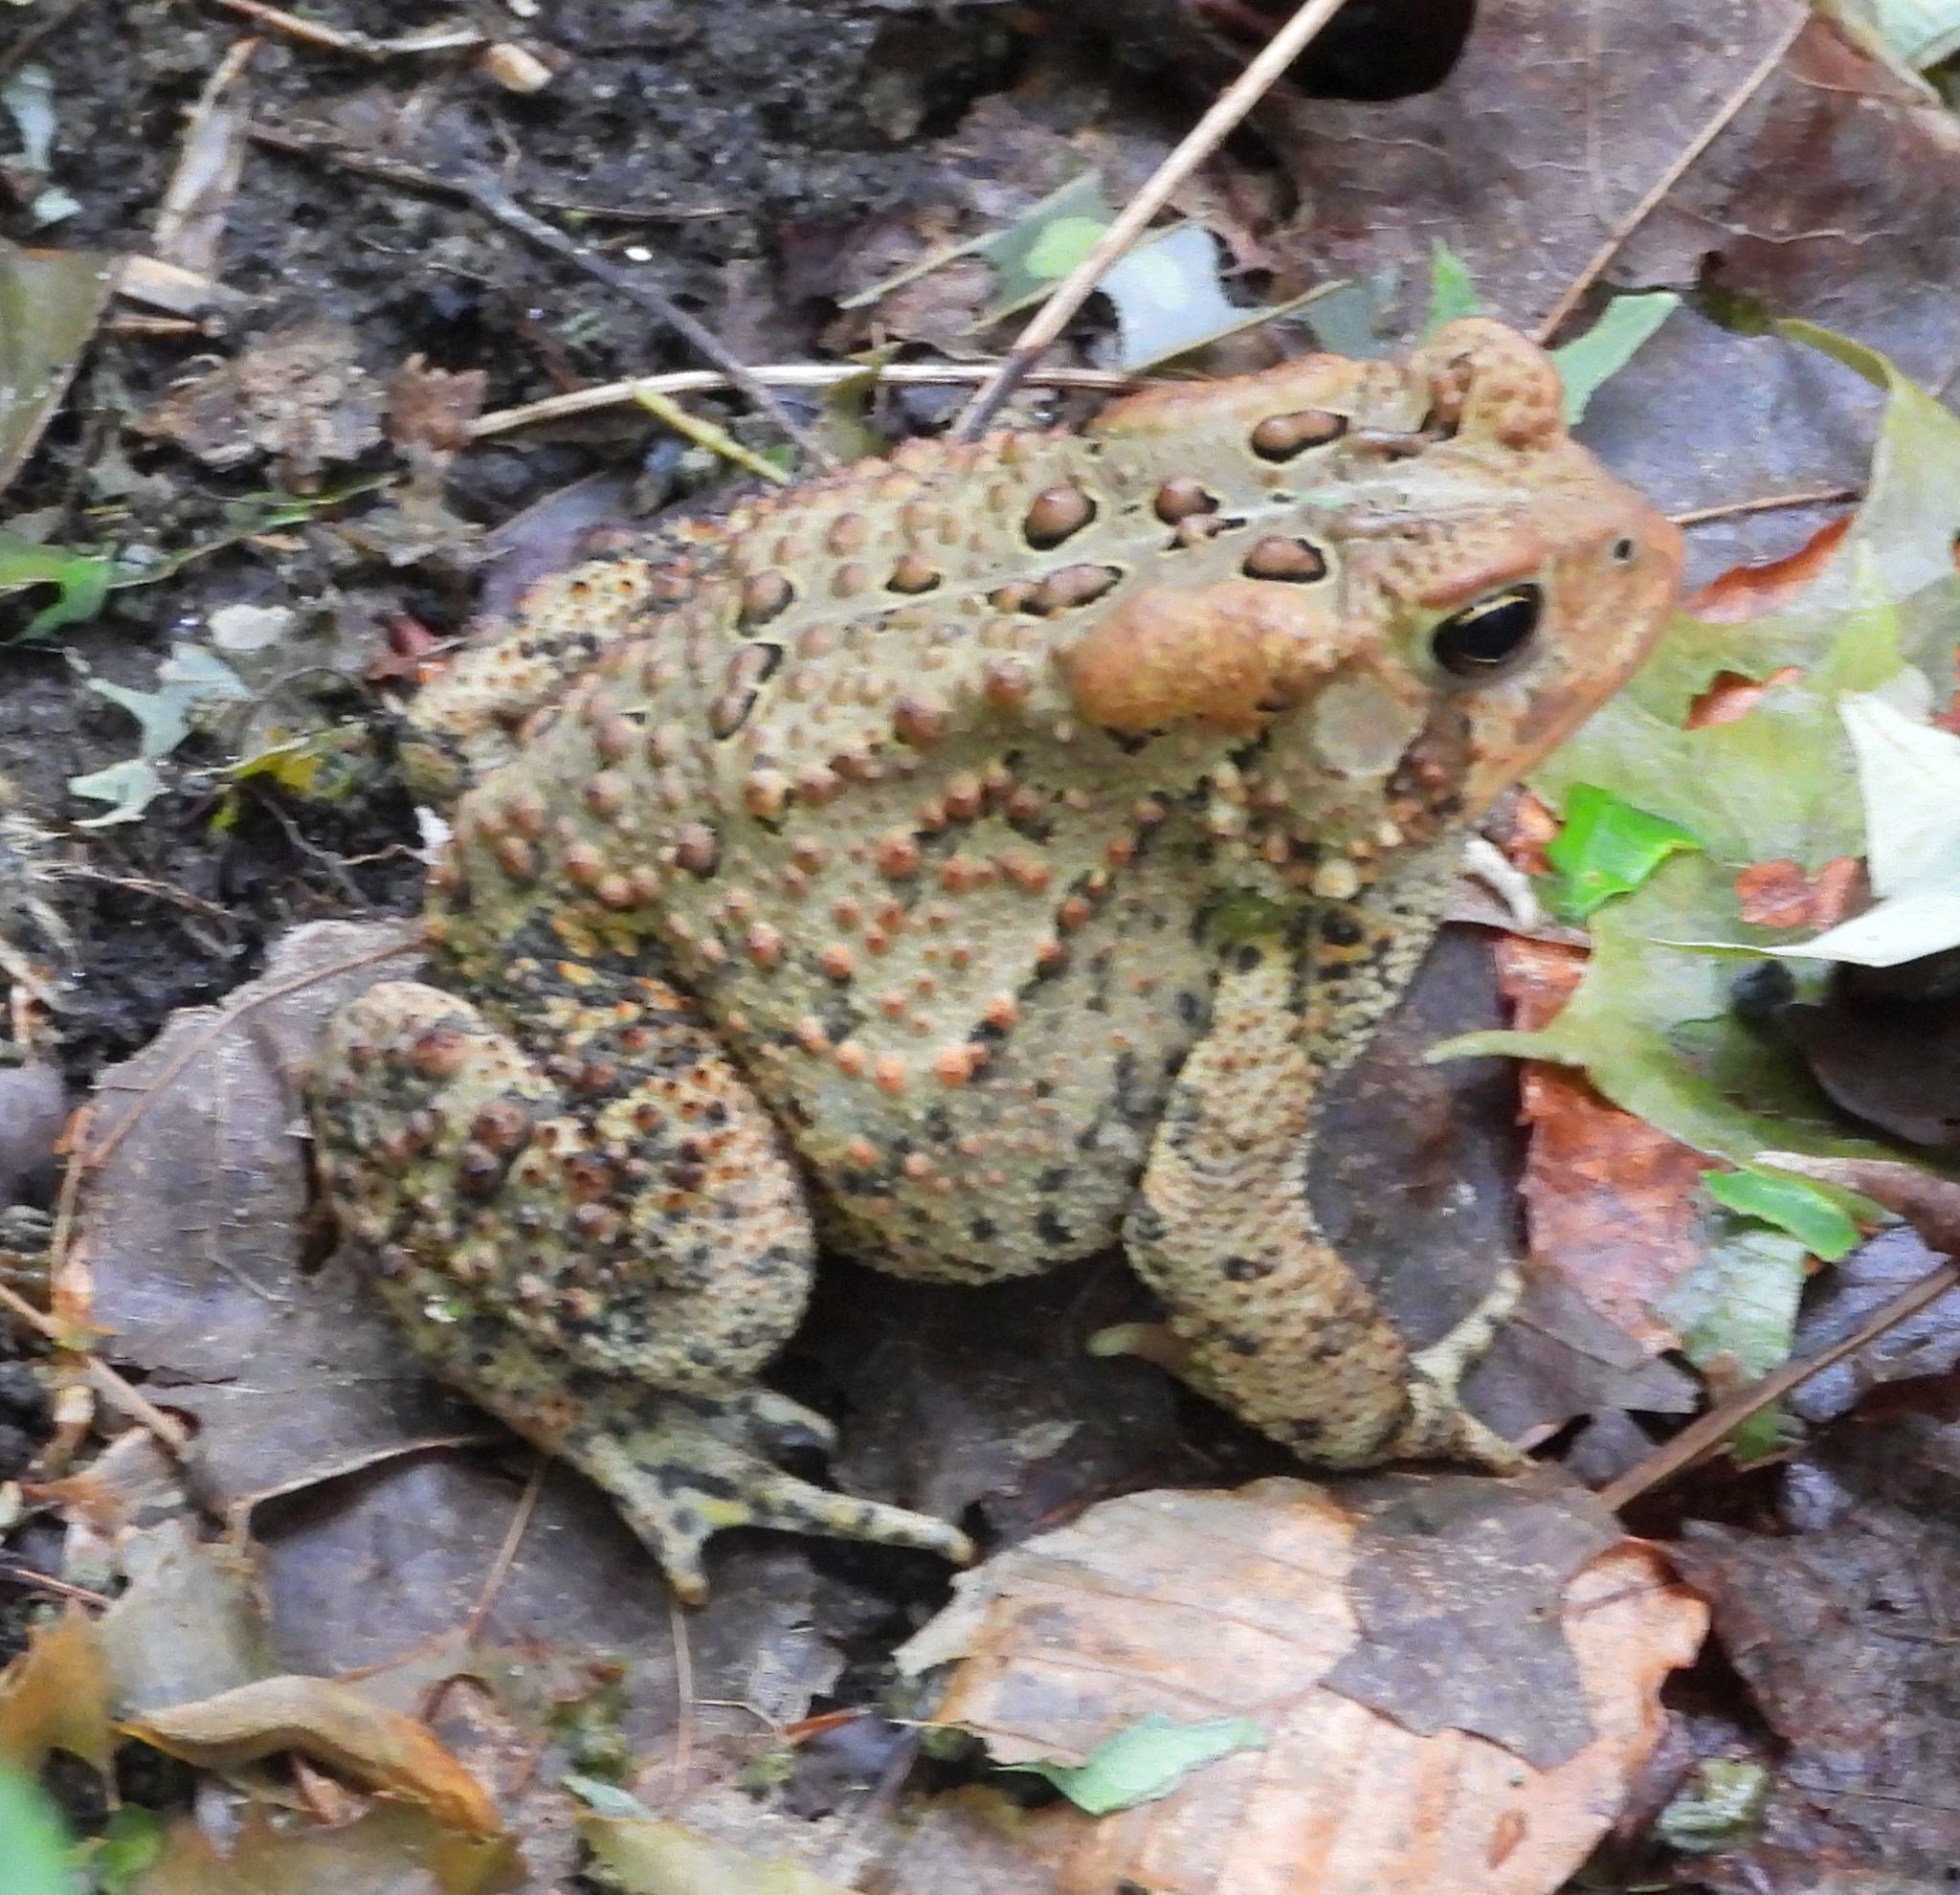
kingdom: Animalia
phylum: Chordata
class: Amphibia
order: Anura
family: Bufonidae
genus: Anaxyrus
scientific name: Anaxyrus americanus
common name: American toad
